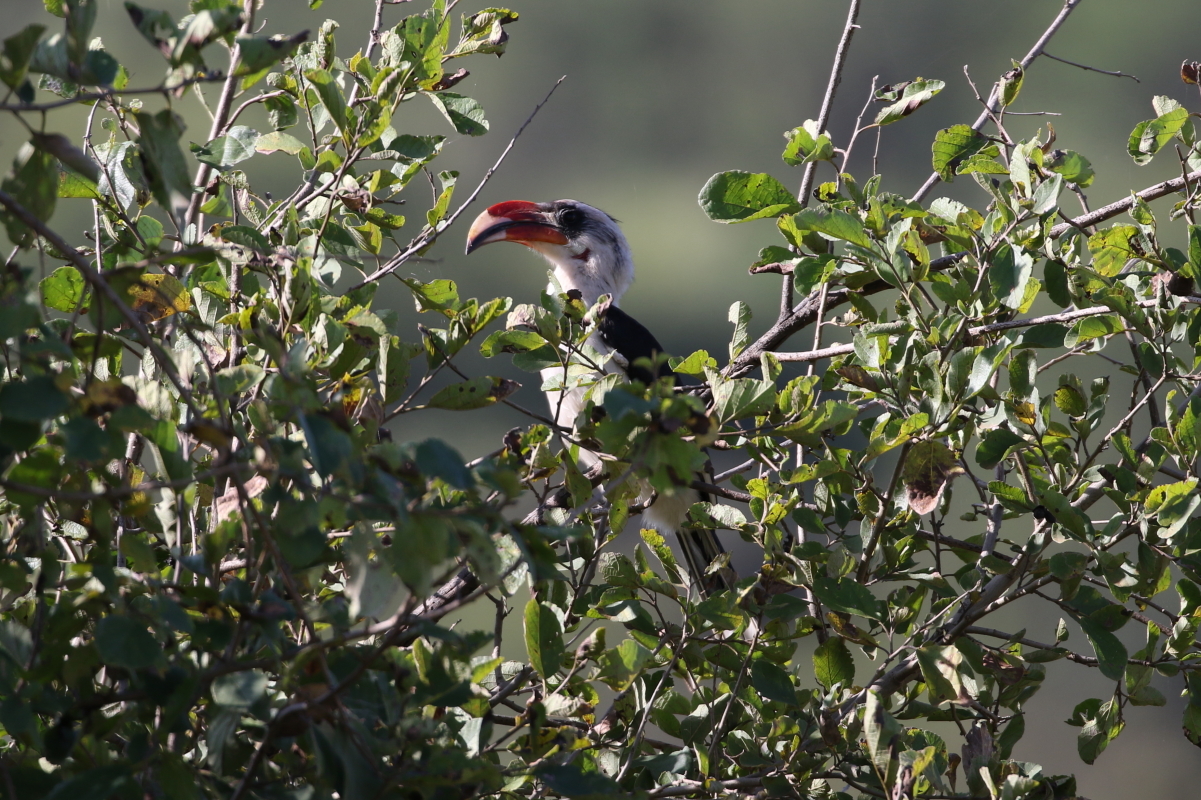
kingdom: Animalia
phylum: Chordata
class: Aves
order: Bucerotiformes
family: Bucerotidae
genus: Tockus
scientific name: Tockus deckeni
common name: Von der decken's hornbill
